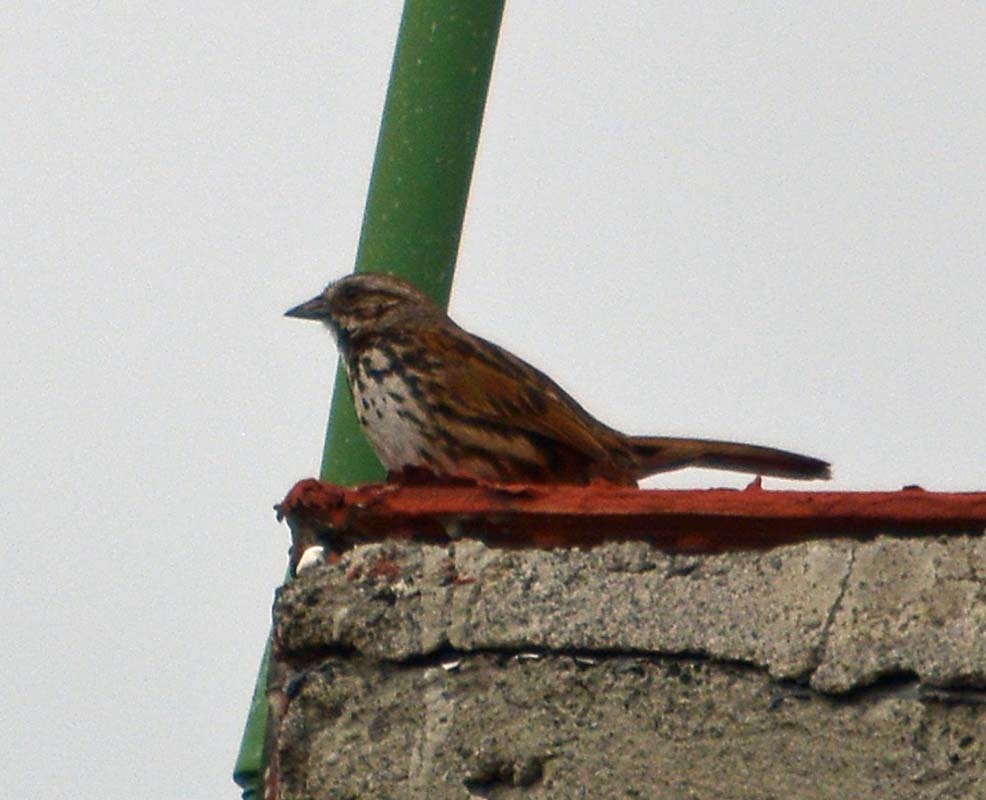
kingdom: Animalia
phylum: Chordata
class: Aves
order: Passeriformes
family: Passerellidae
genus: Melospiza
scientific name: Melospiza melodia
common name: Song sparrow
